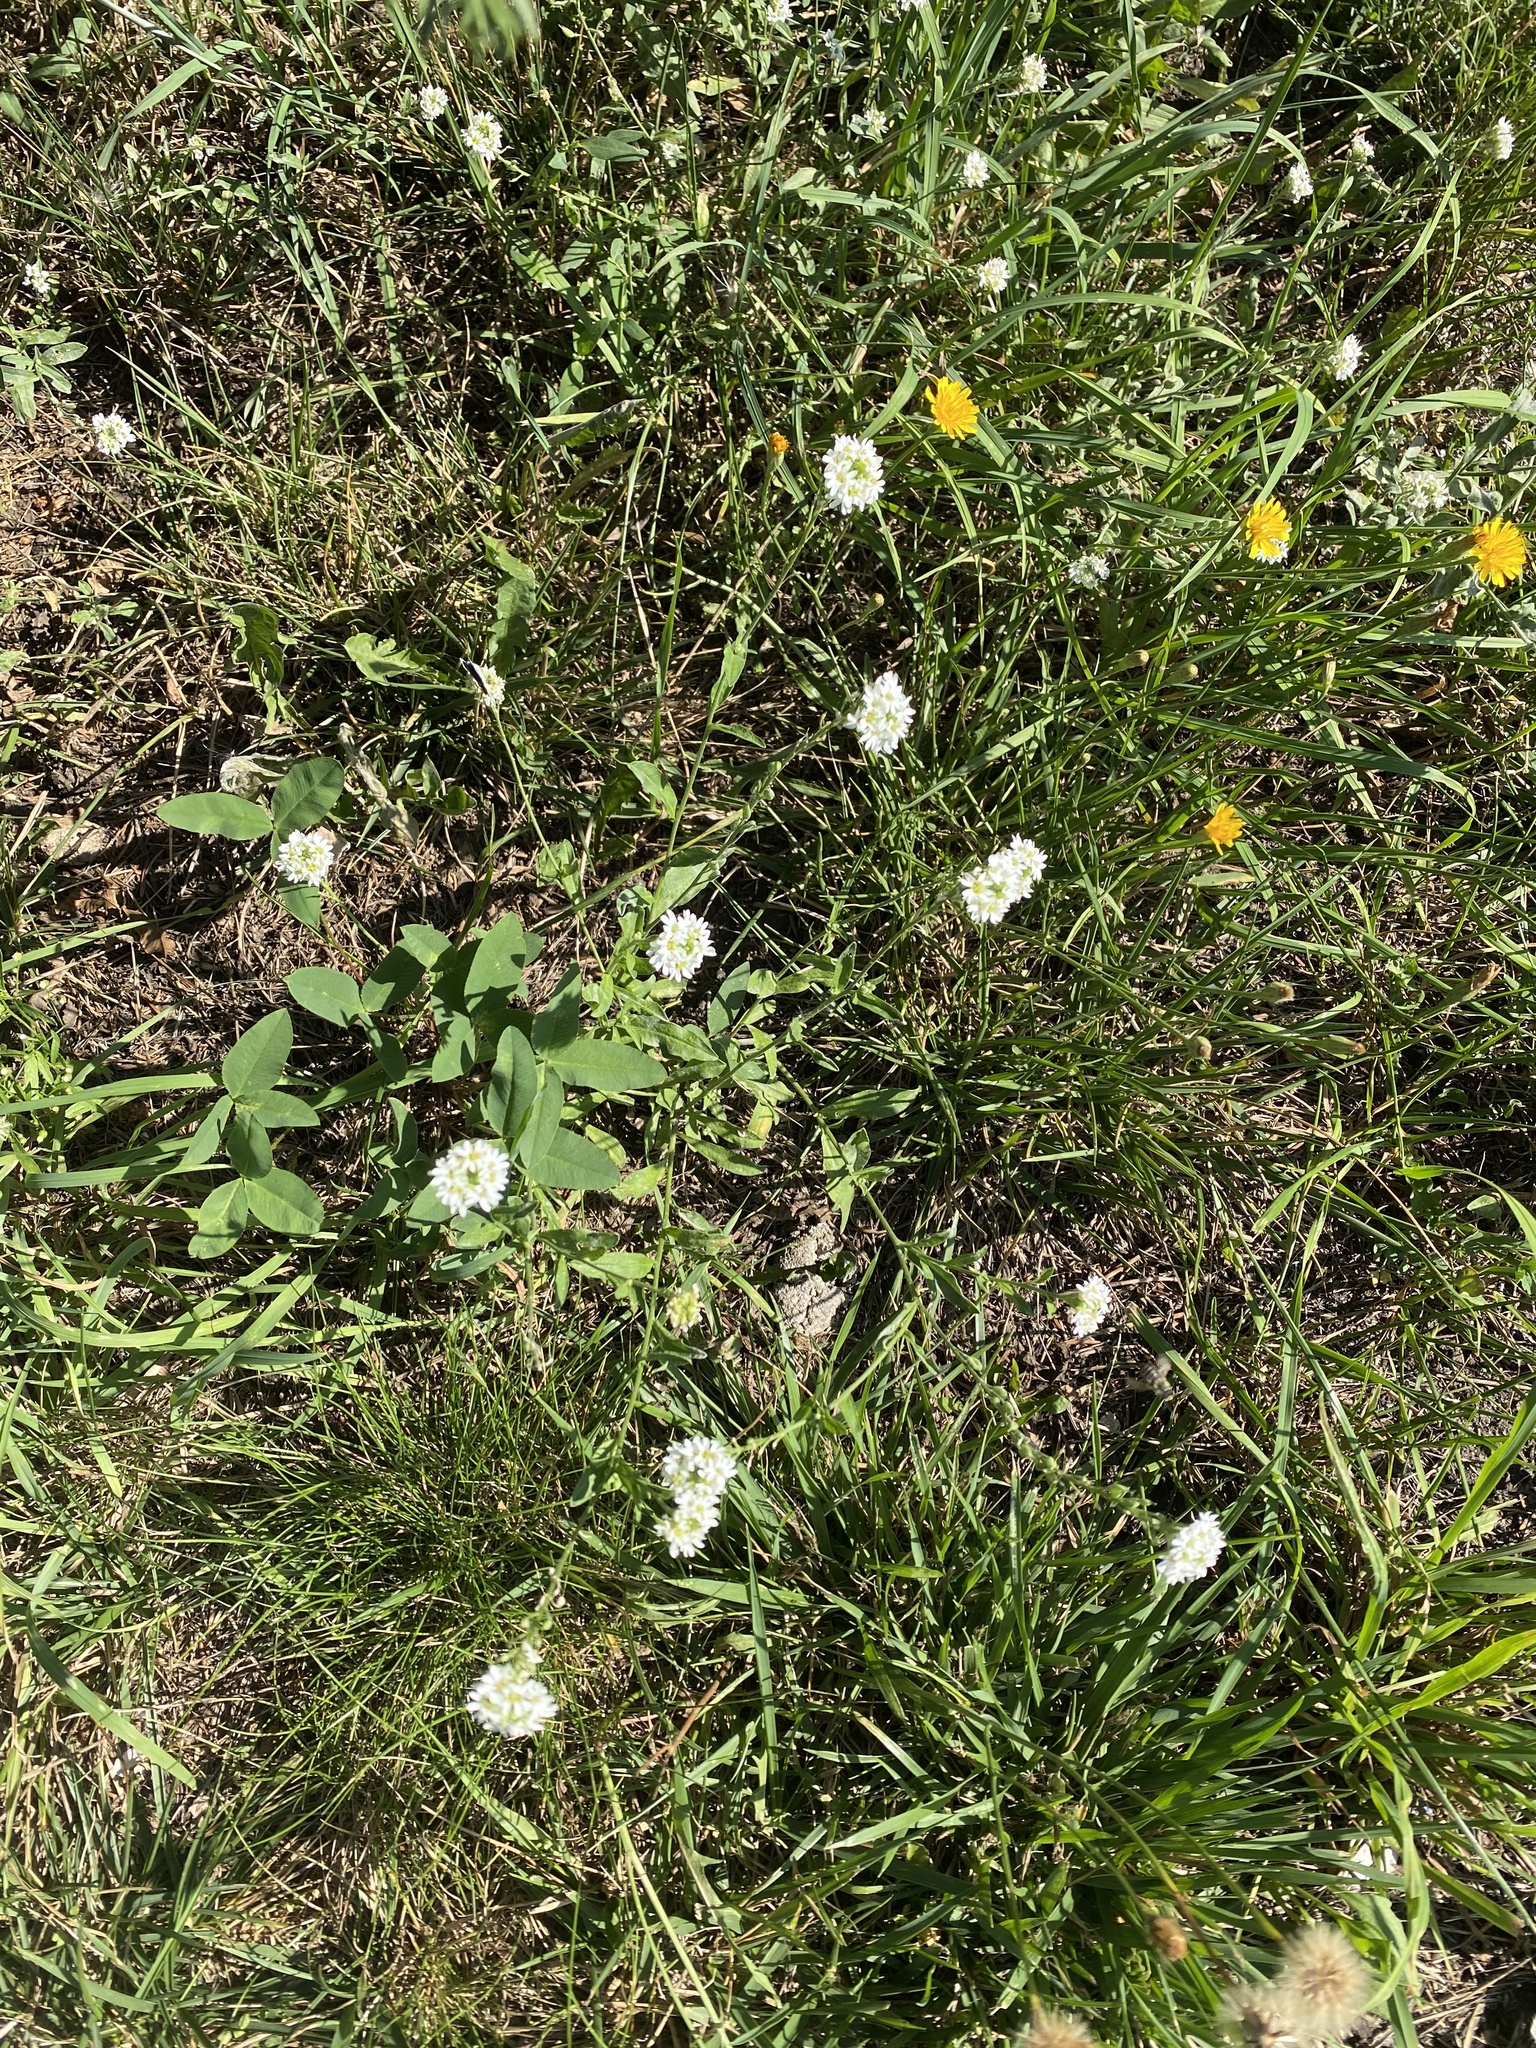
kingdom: Plantae
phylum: Tracheophyta
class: Magnoliopsida
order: Brassicales
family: Brassicaceae
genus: Berteroa
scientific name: Berteroa incana
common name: Hoary alison
